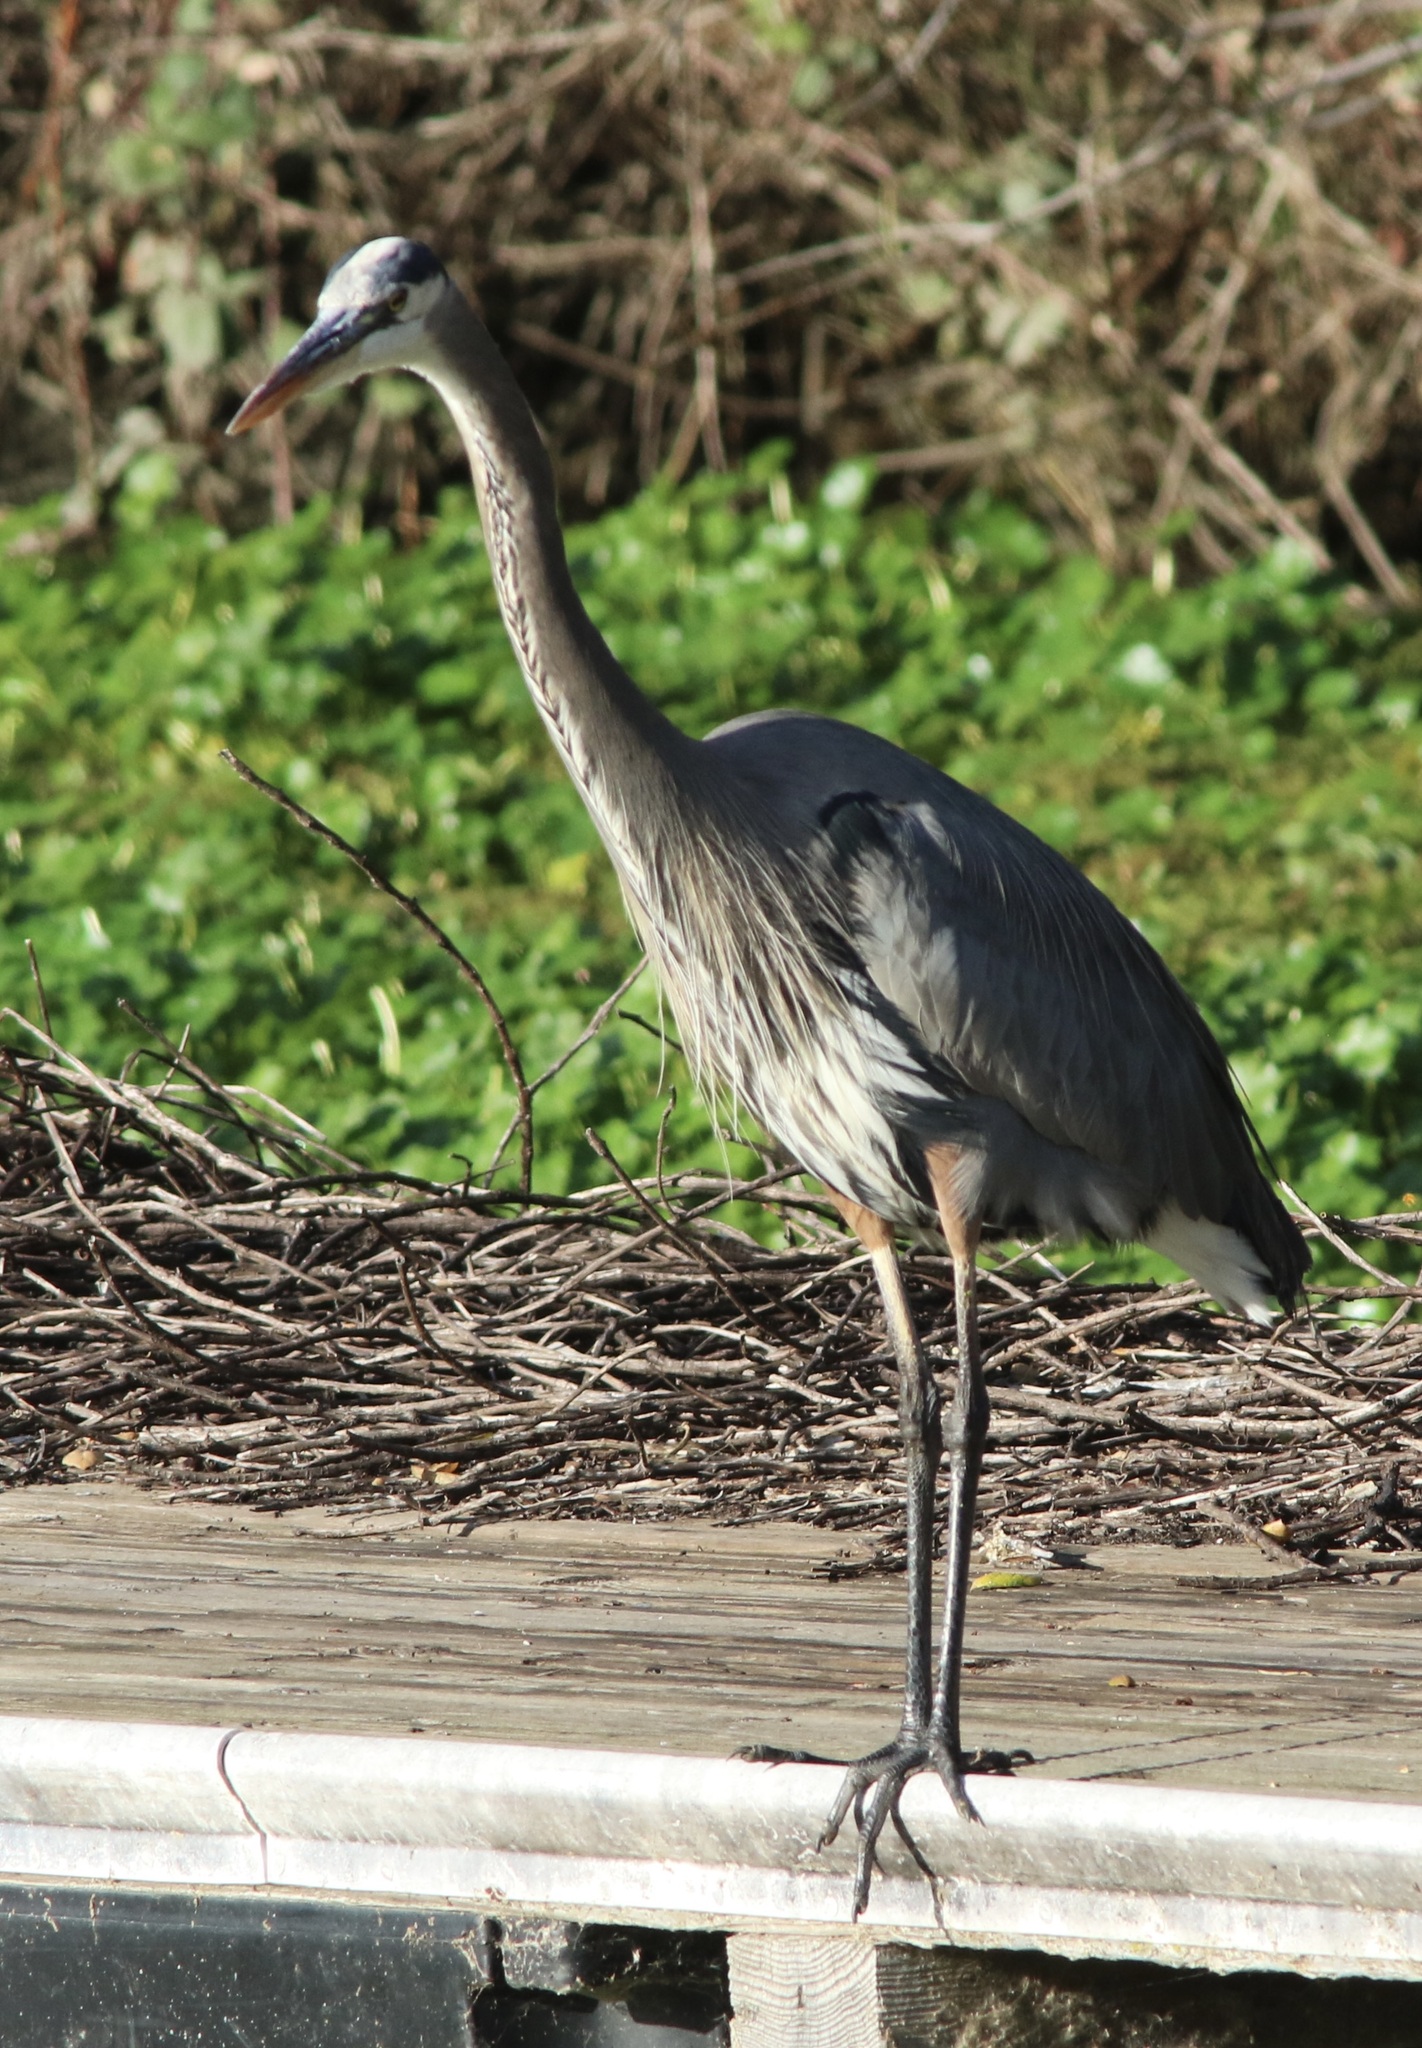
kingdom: Animalia
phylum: Chordata
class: Aves
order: Pelecaniformes
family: Ardeidae
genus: Ardea
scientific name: Ardea herodias
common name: Great blue heron
